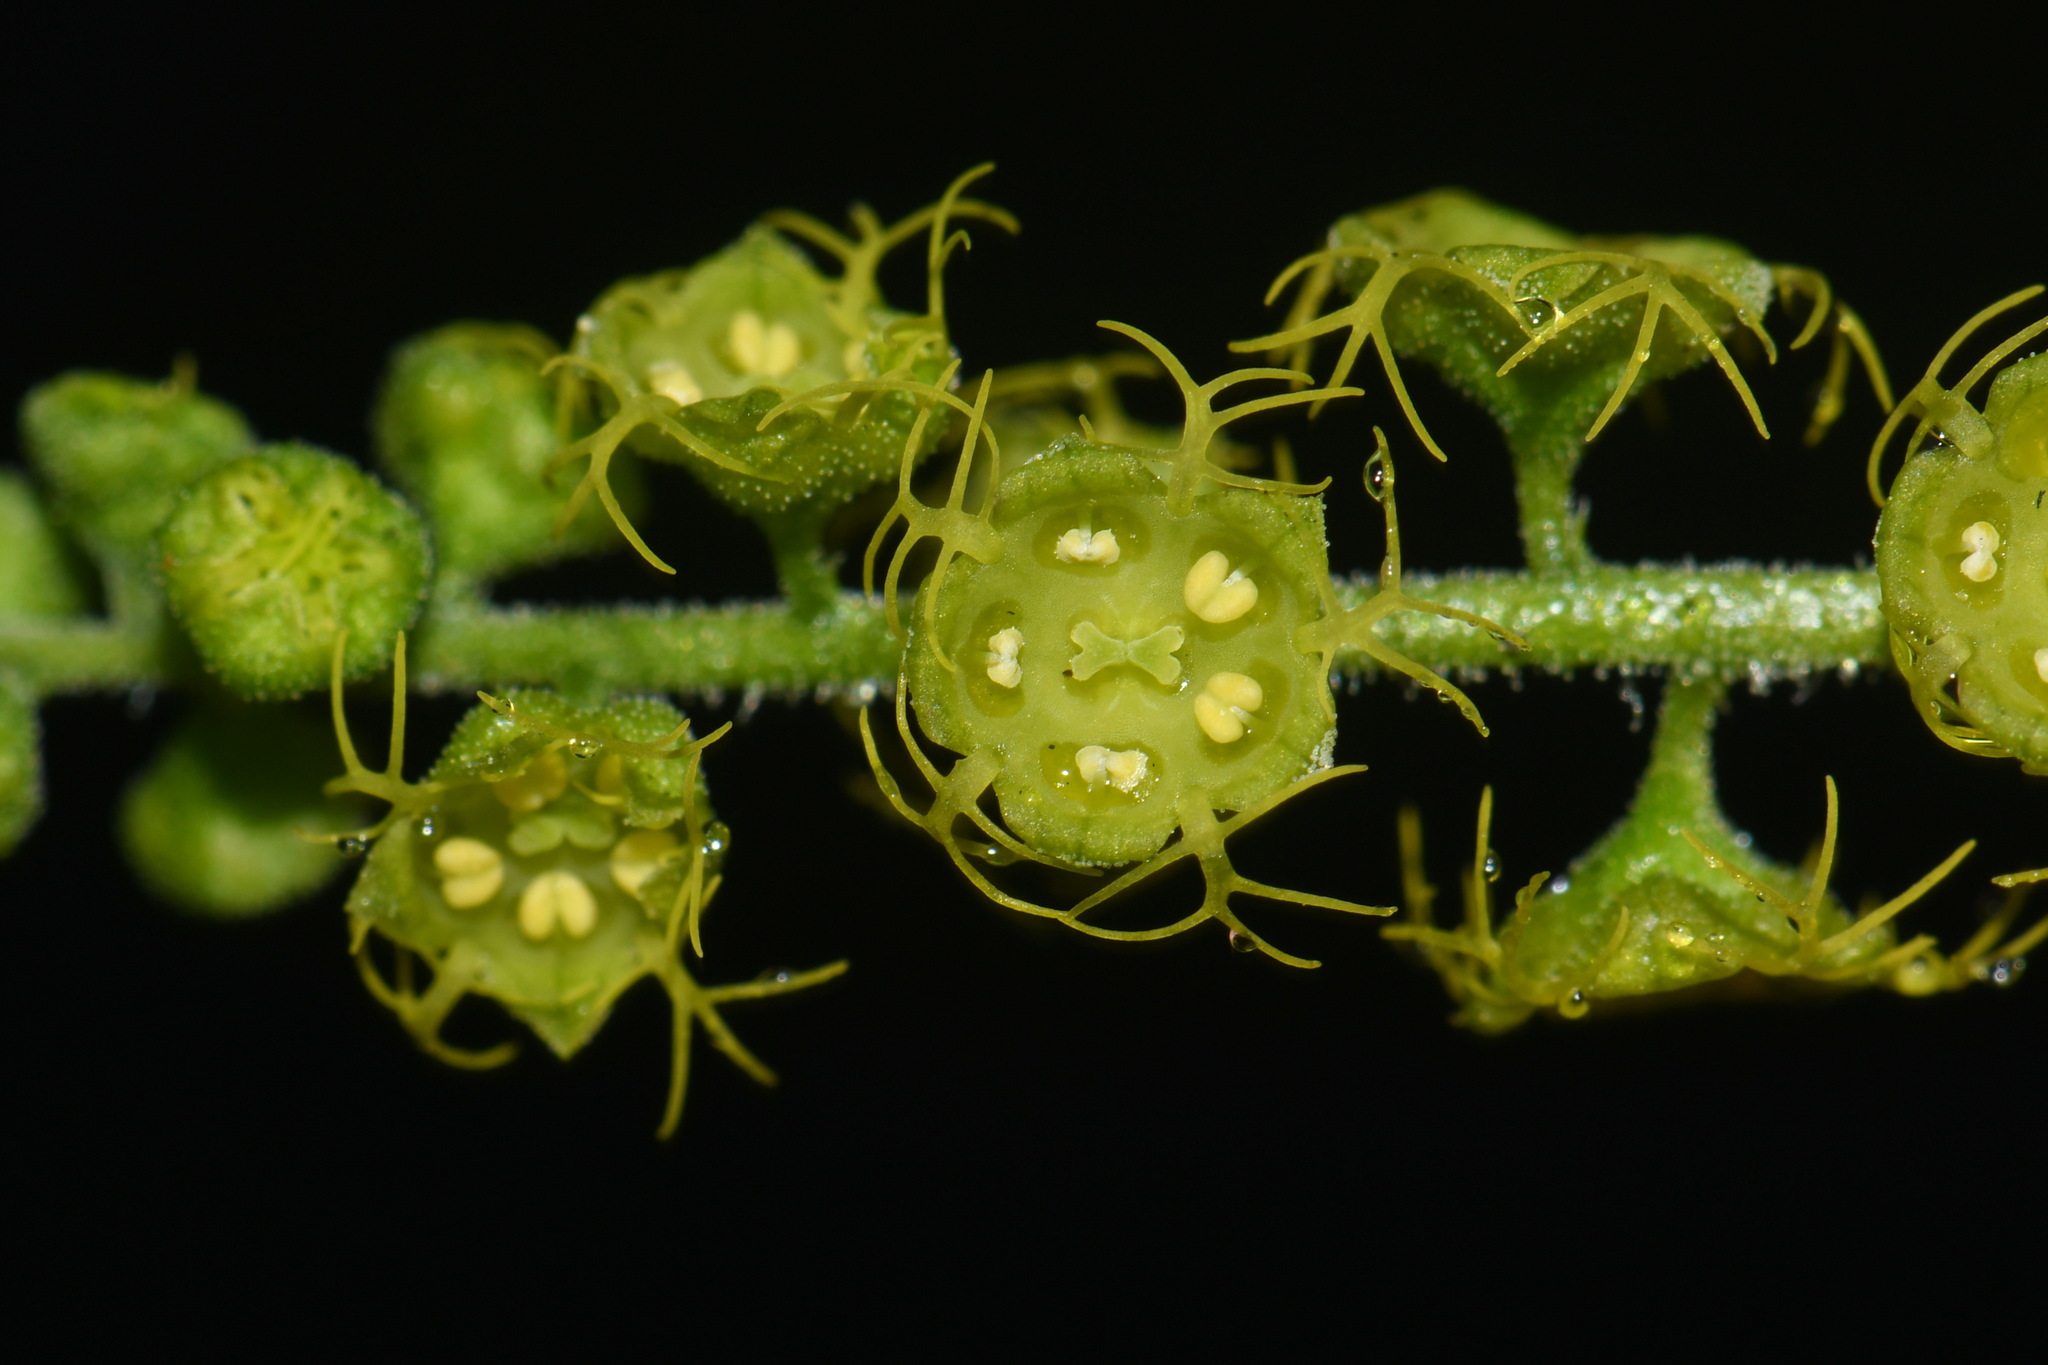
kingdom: Plantae
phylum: Tracheophyta
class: Magnoliopsida
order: Saxifragales
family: Saxifragaceae
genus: Brewerimitella
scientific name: Brewerimitella breweri
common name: Brewer's bishop's-cap
